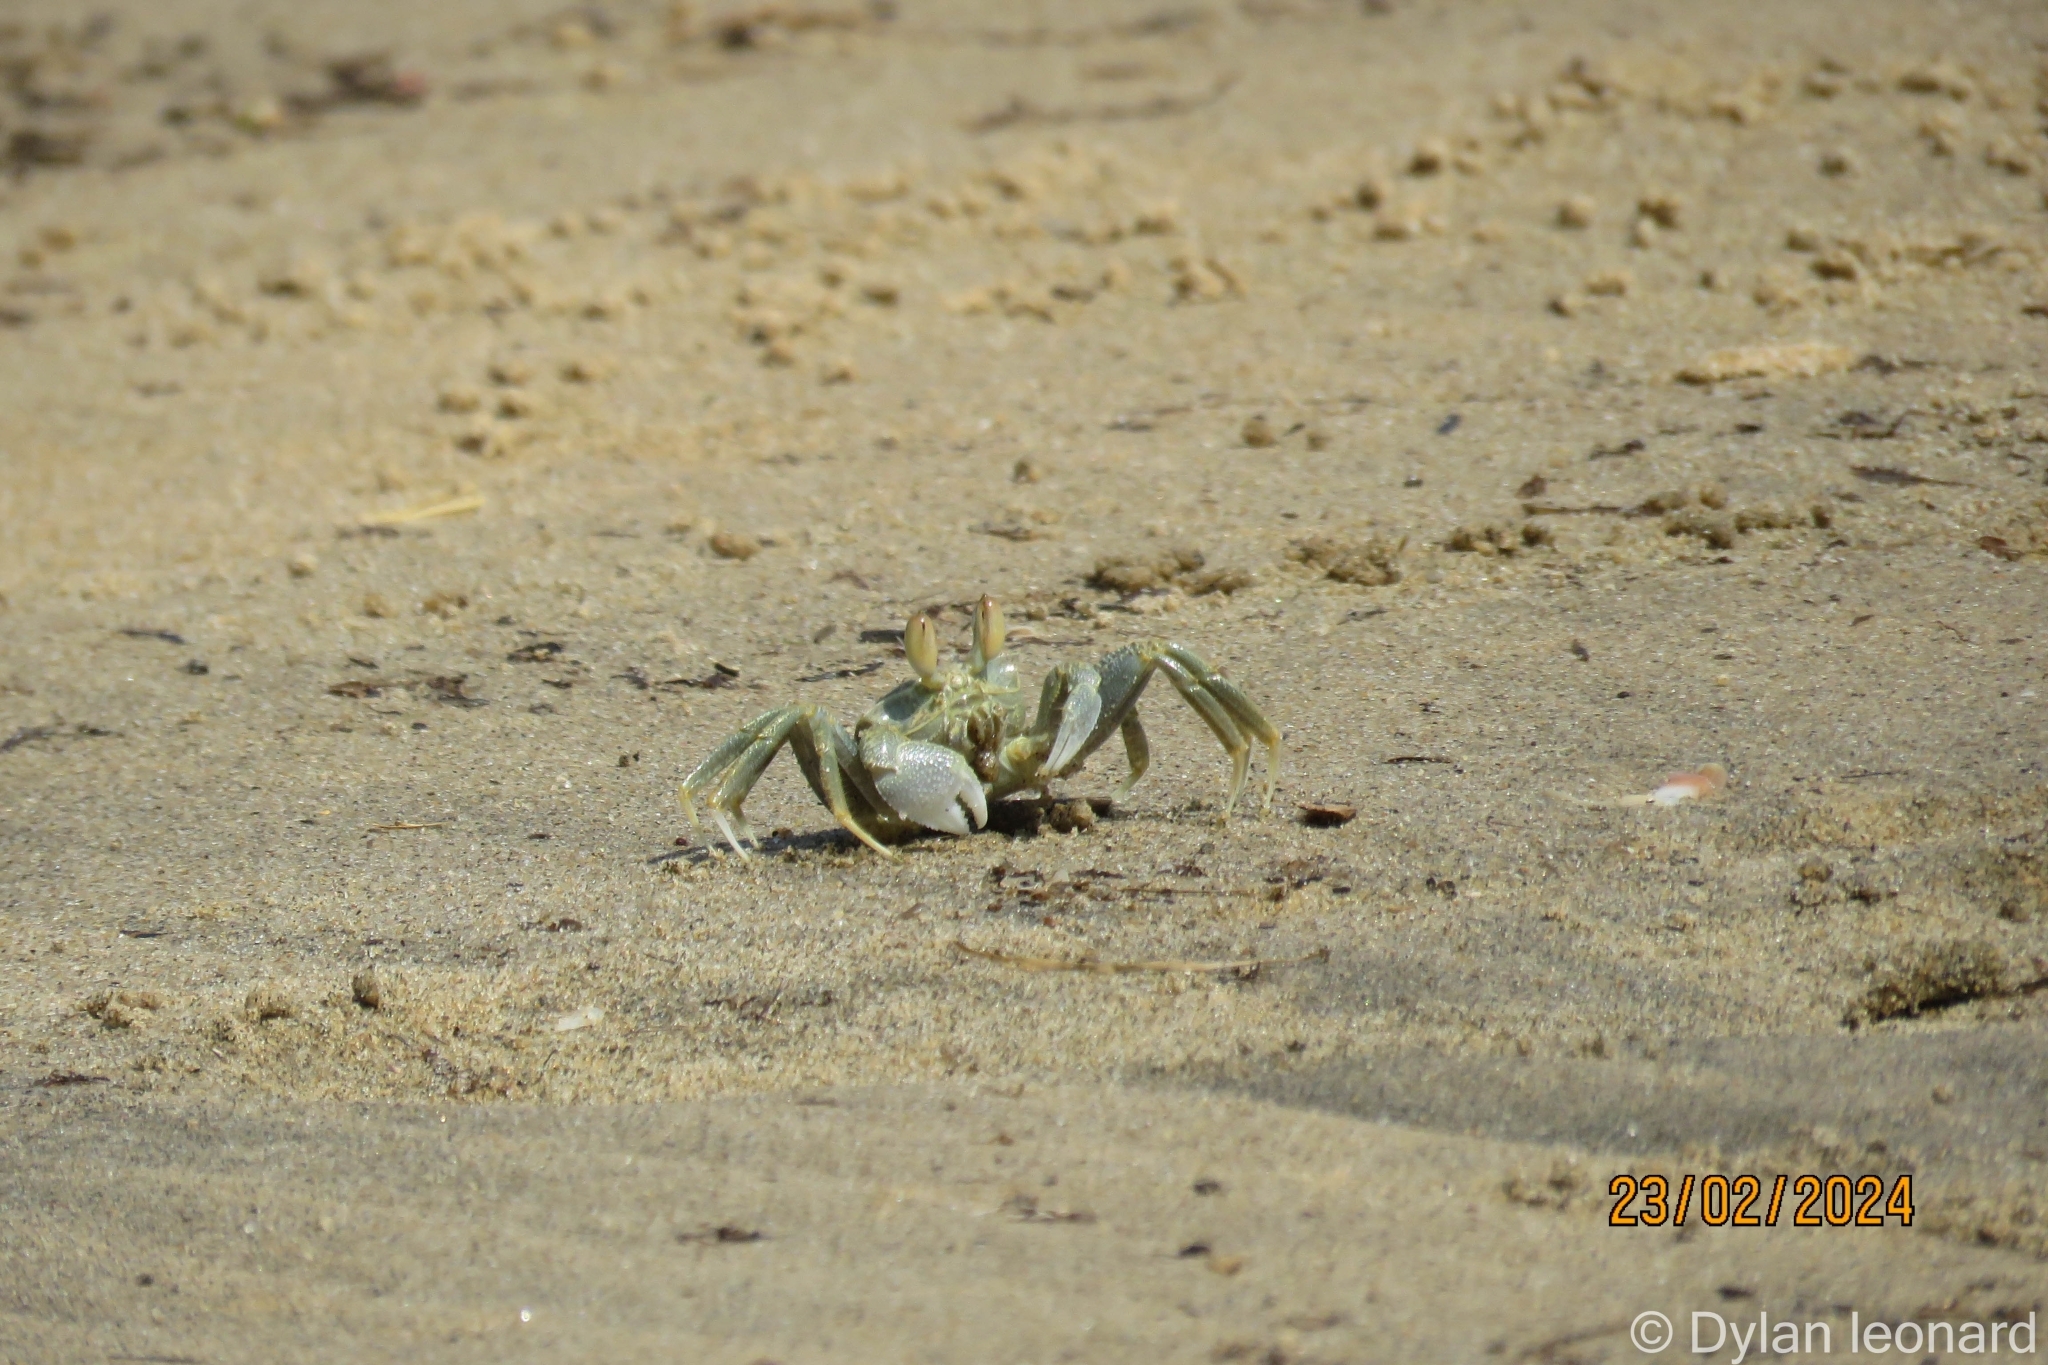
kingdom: Animalia
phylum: Arthropoda
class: Malacostraca
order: Decapoda
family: Ocypodidae
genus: Ocypode
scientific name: Ocypode ceratophthalmus
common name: Indo-pacific ghost crab
